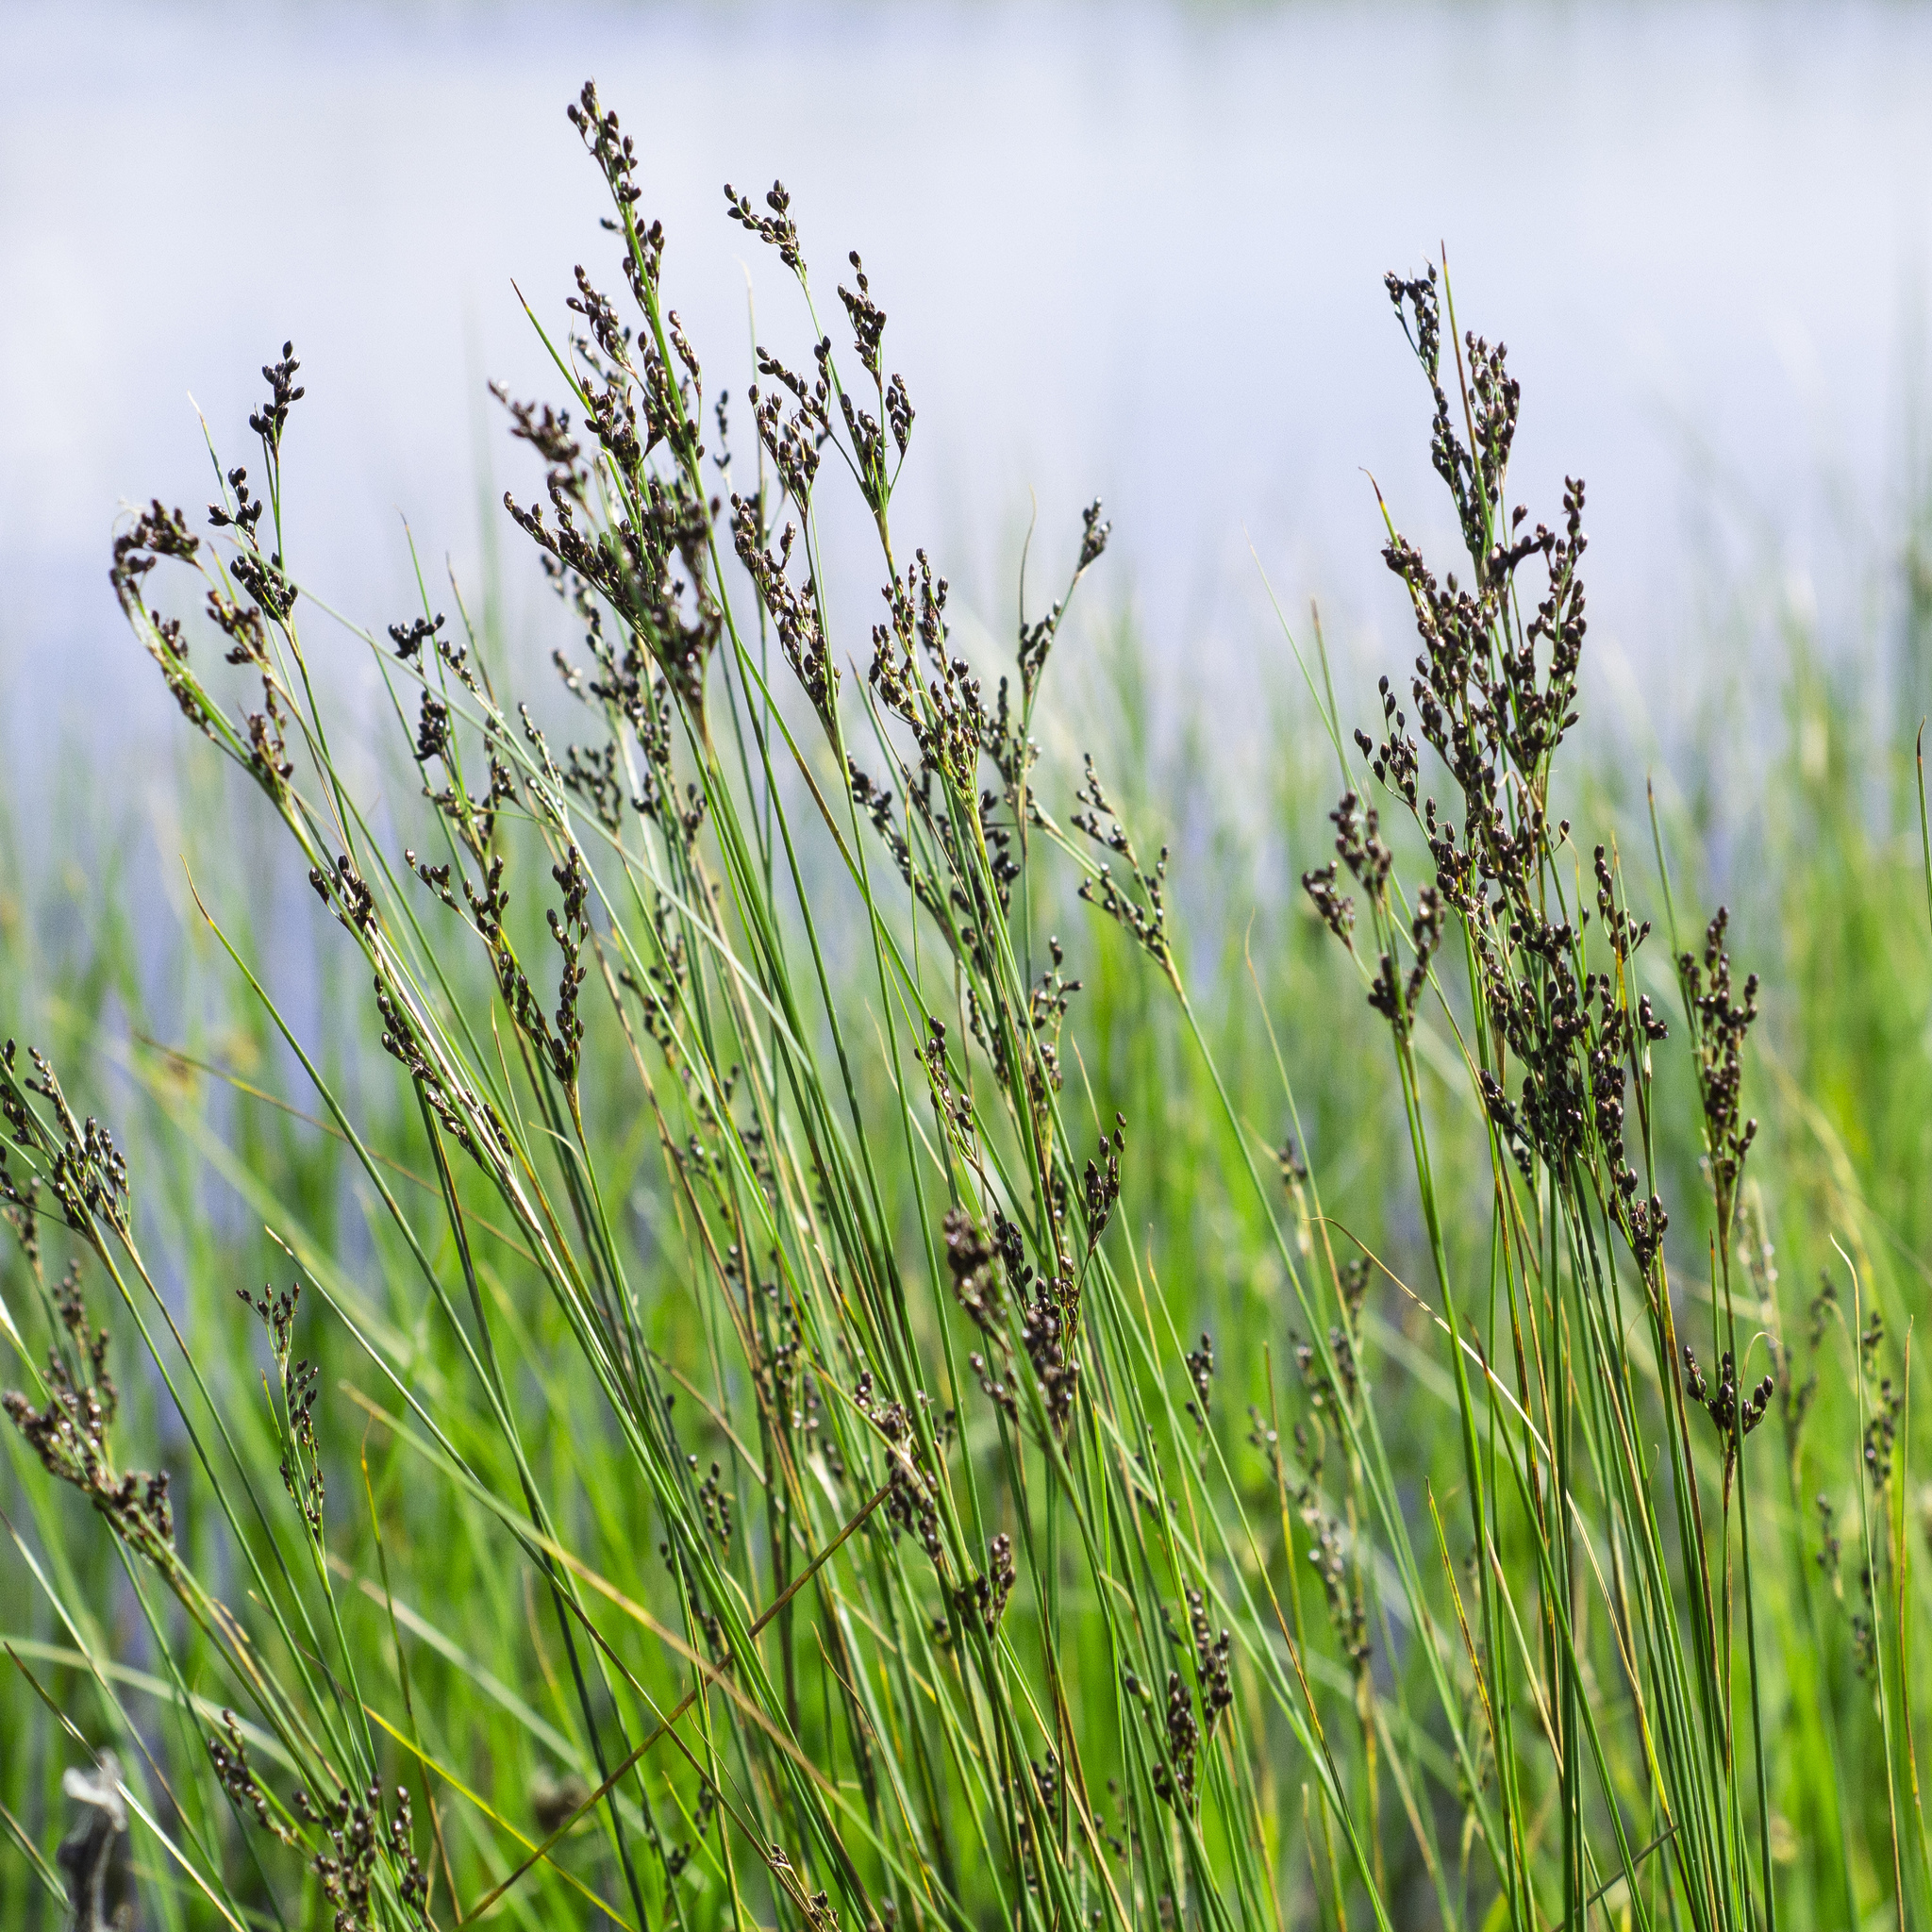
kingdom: Plantae
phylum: Tracheophyta
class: Liliopsida
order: Poales
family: Juncaceae
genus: Juncus
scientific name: Juncus compressus
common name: Round-fruited rush
